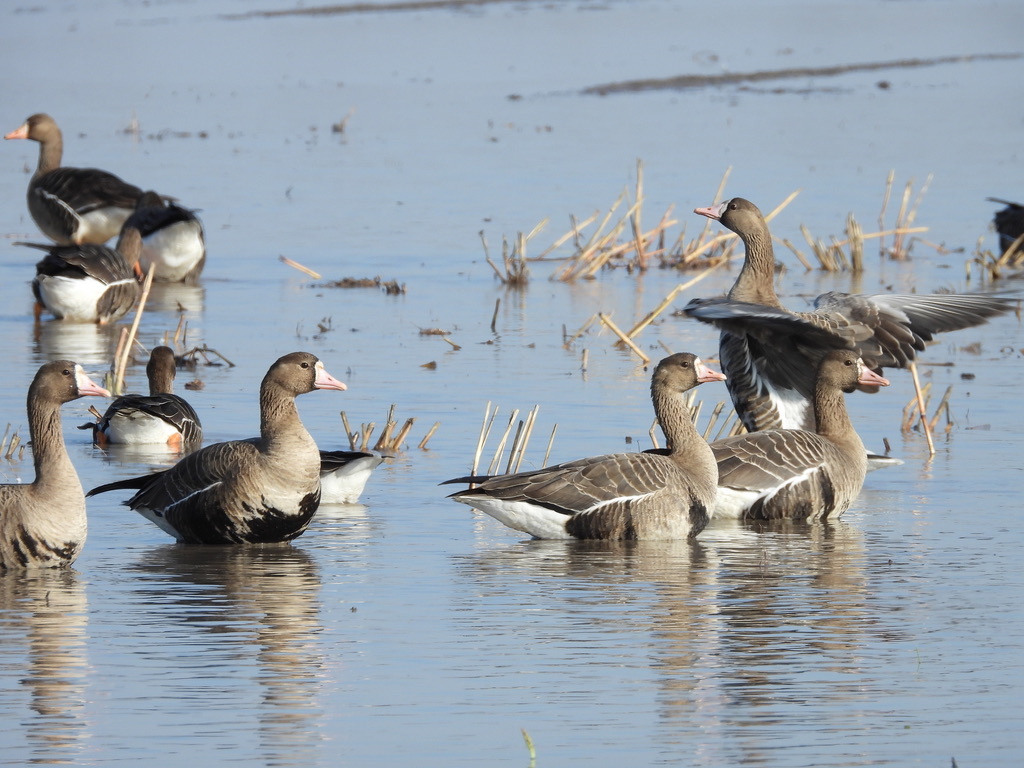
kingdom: Animalia
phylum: Chordata
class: Aves
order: Anseriformes
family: Anatidae
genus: Anser
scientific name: Anser albifrons
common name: Greater white-fronted goose
